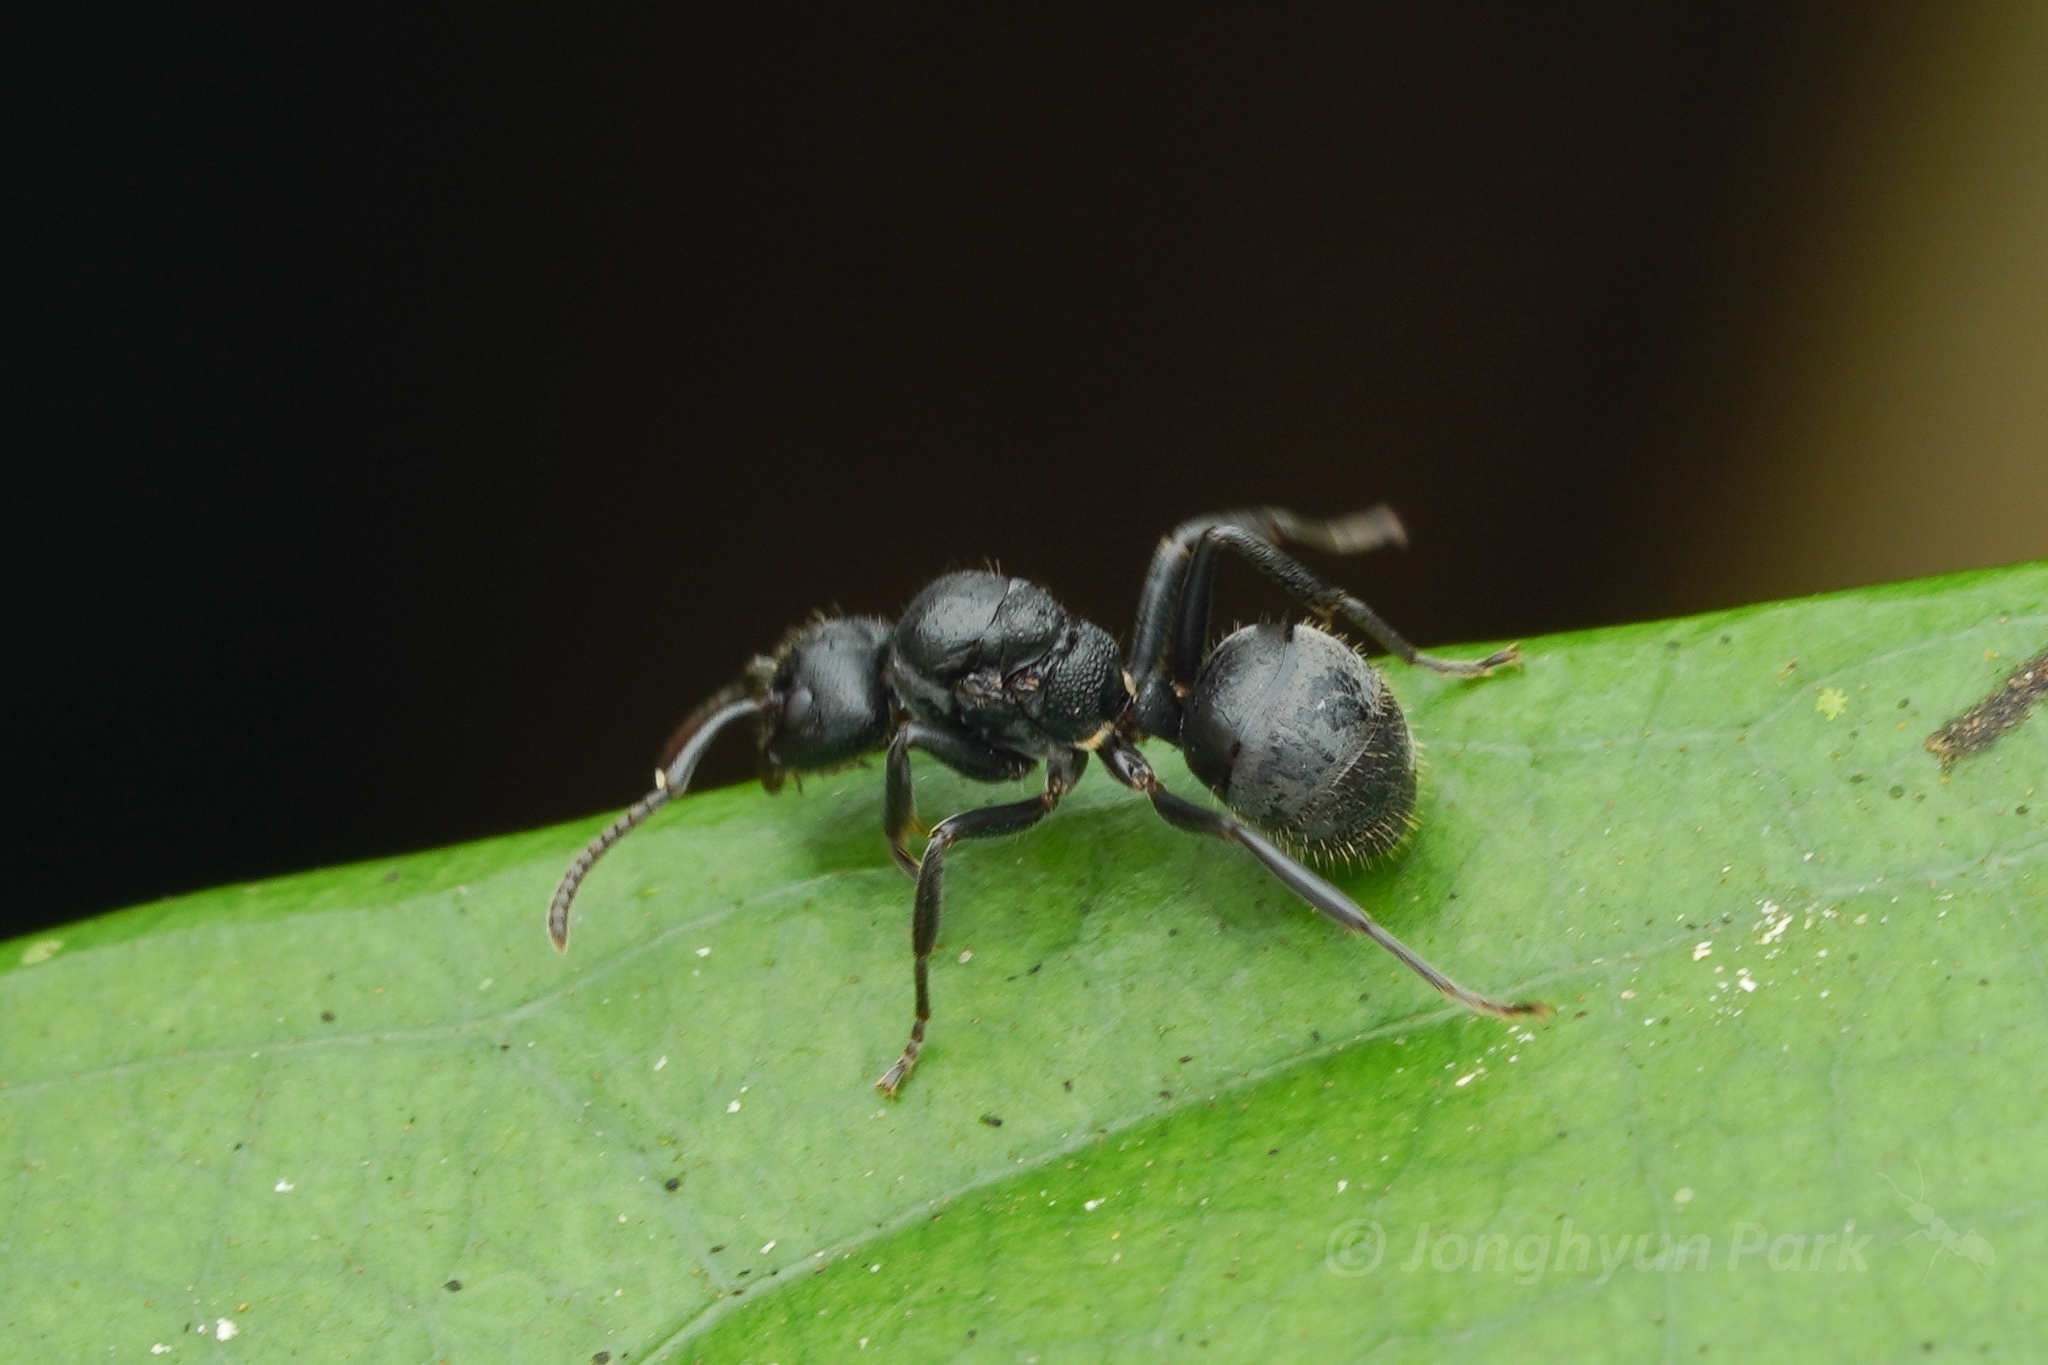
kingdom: Animalia
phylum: Arthropoda
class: Insecta
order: Hymenoptera
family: Formicidae
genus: Dolichoderus
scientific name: Dolichoderus carbonarius
